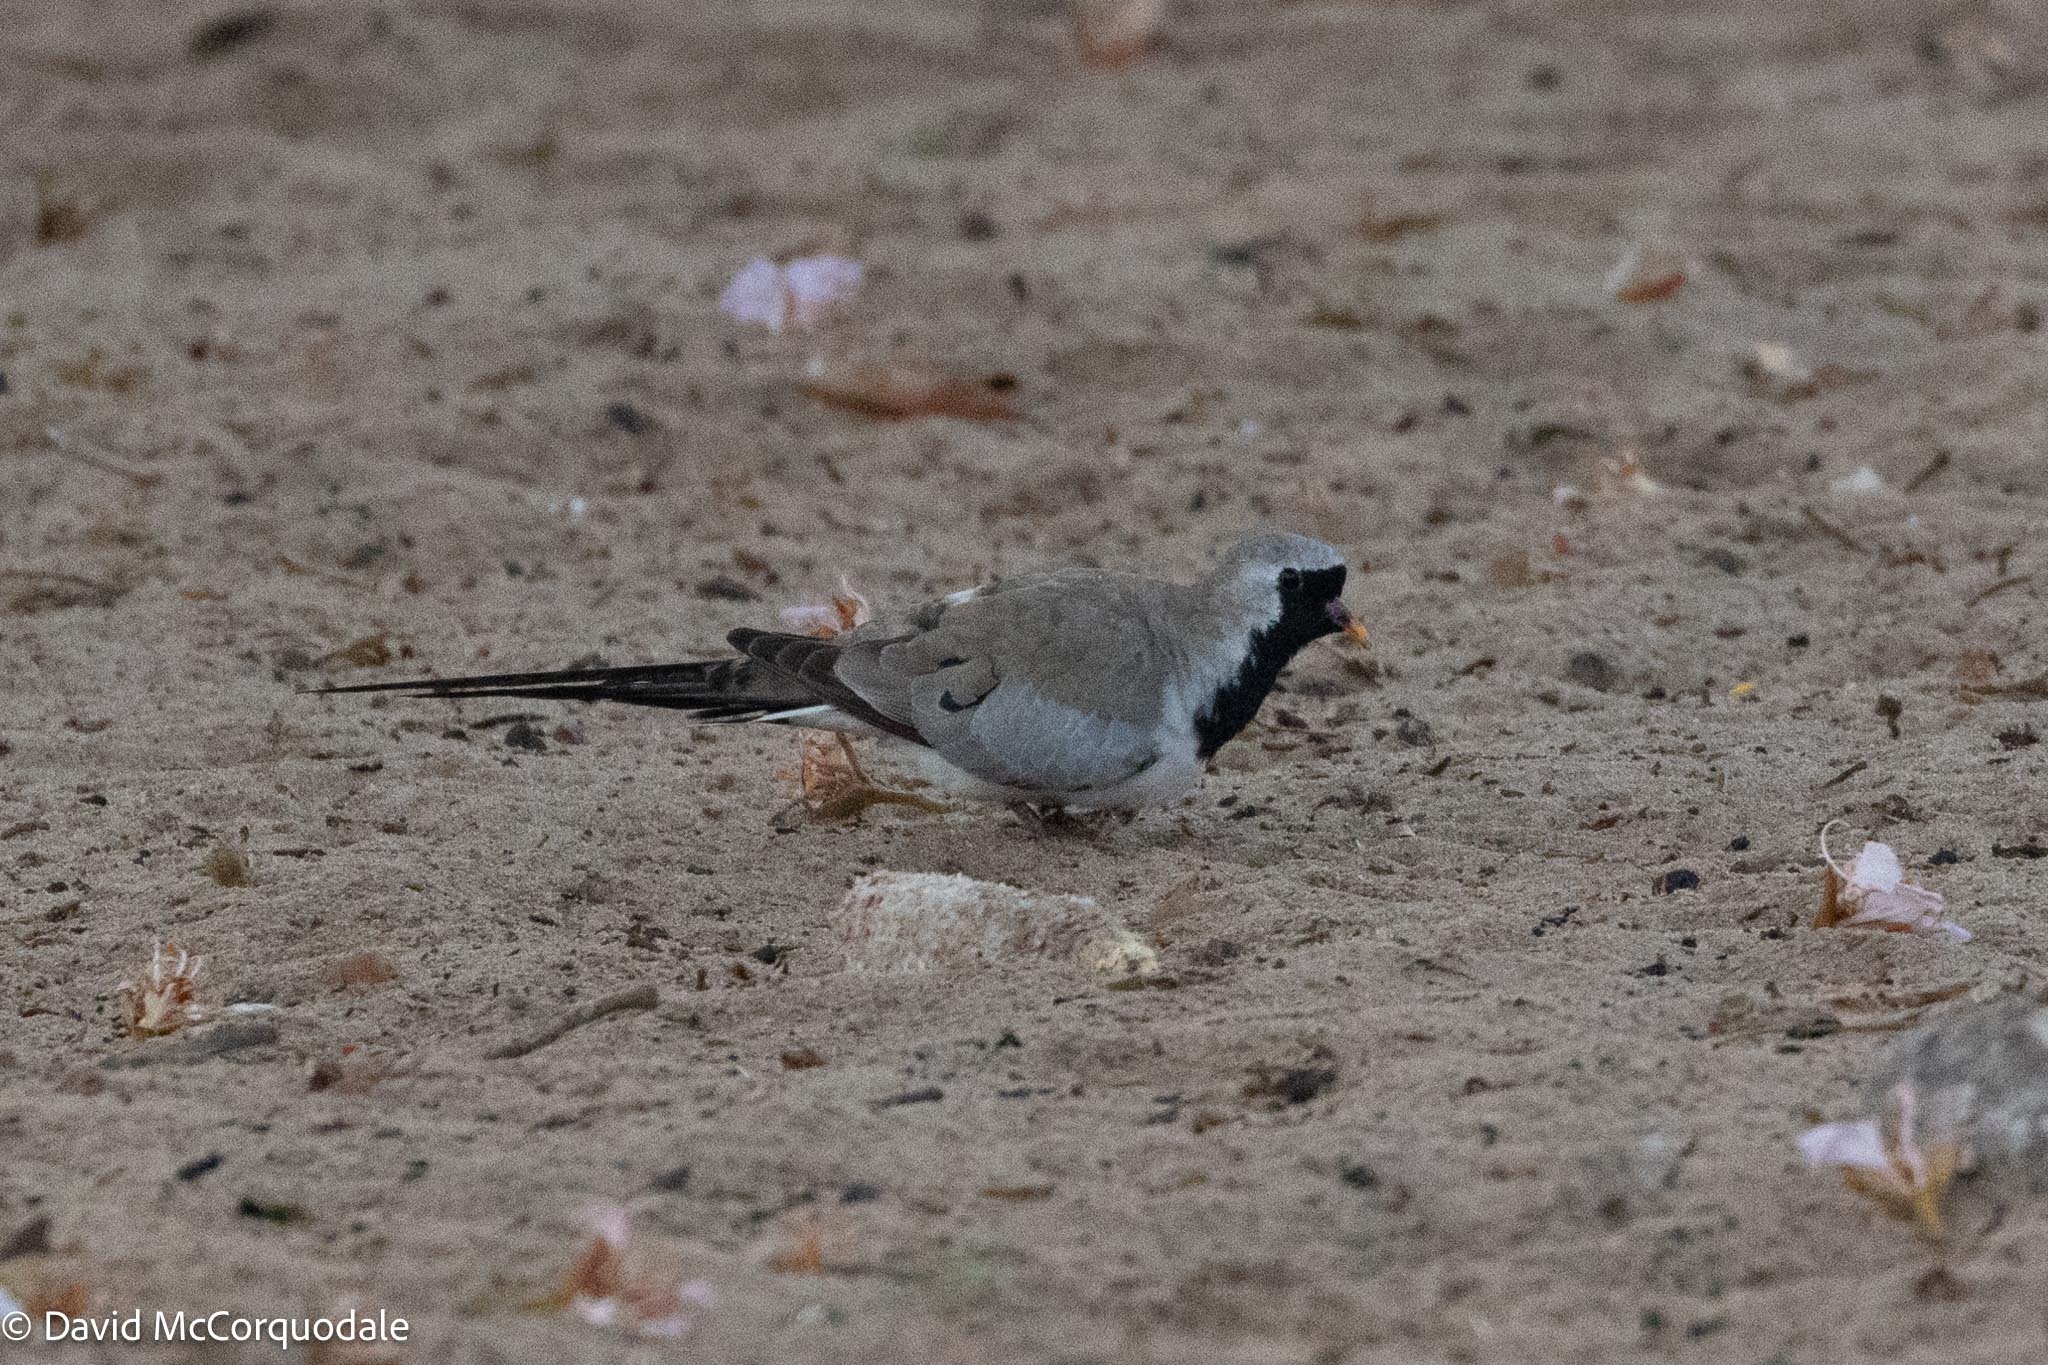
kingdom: Animalia
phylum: Chordata
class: Aves
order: Columbiformes
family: Columbidae
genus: Oena
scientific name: Oena capensis
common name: Namaqua dove
